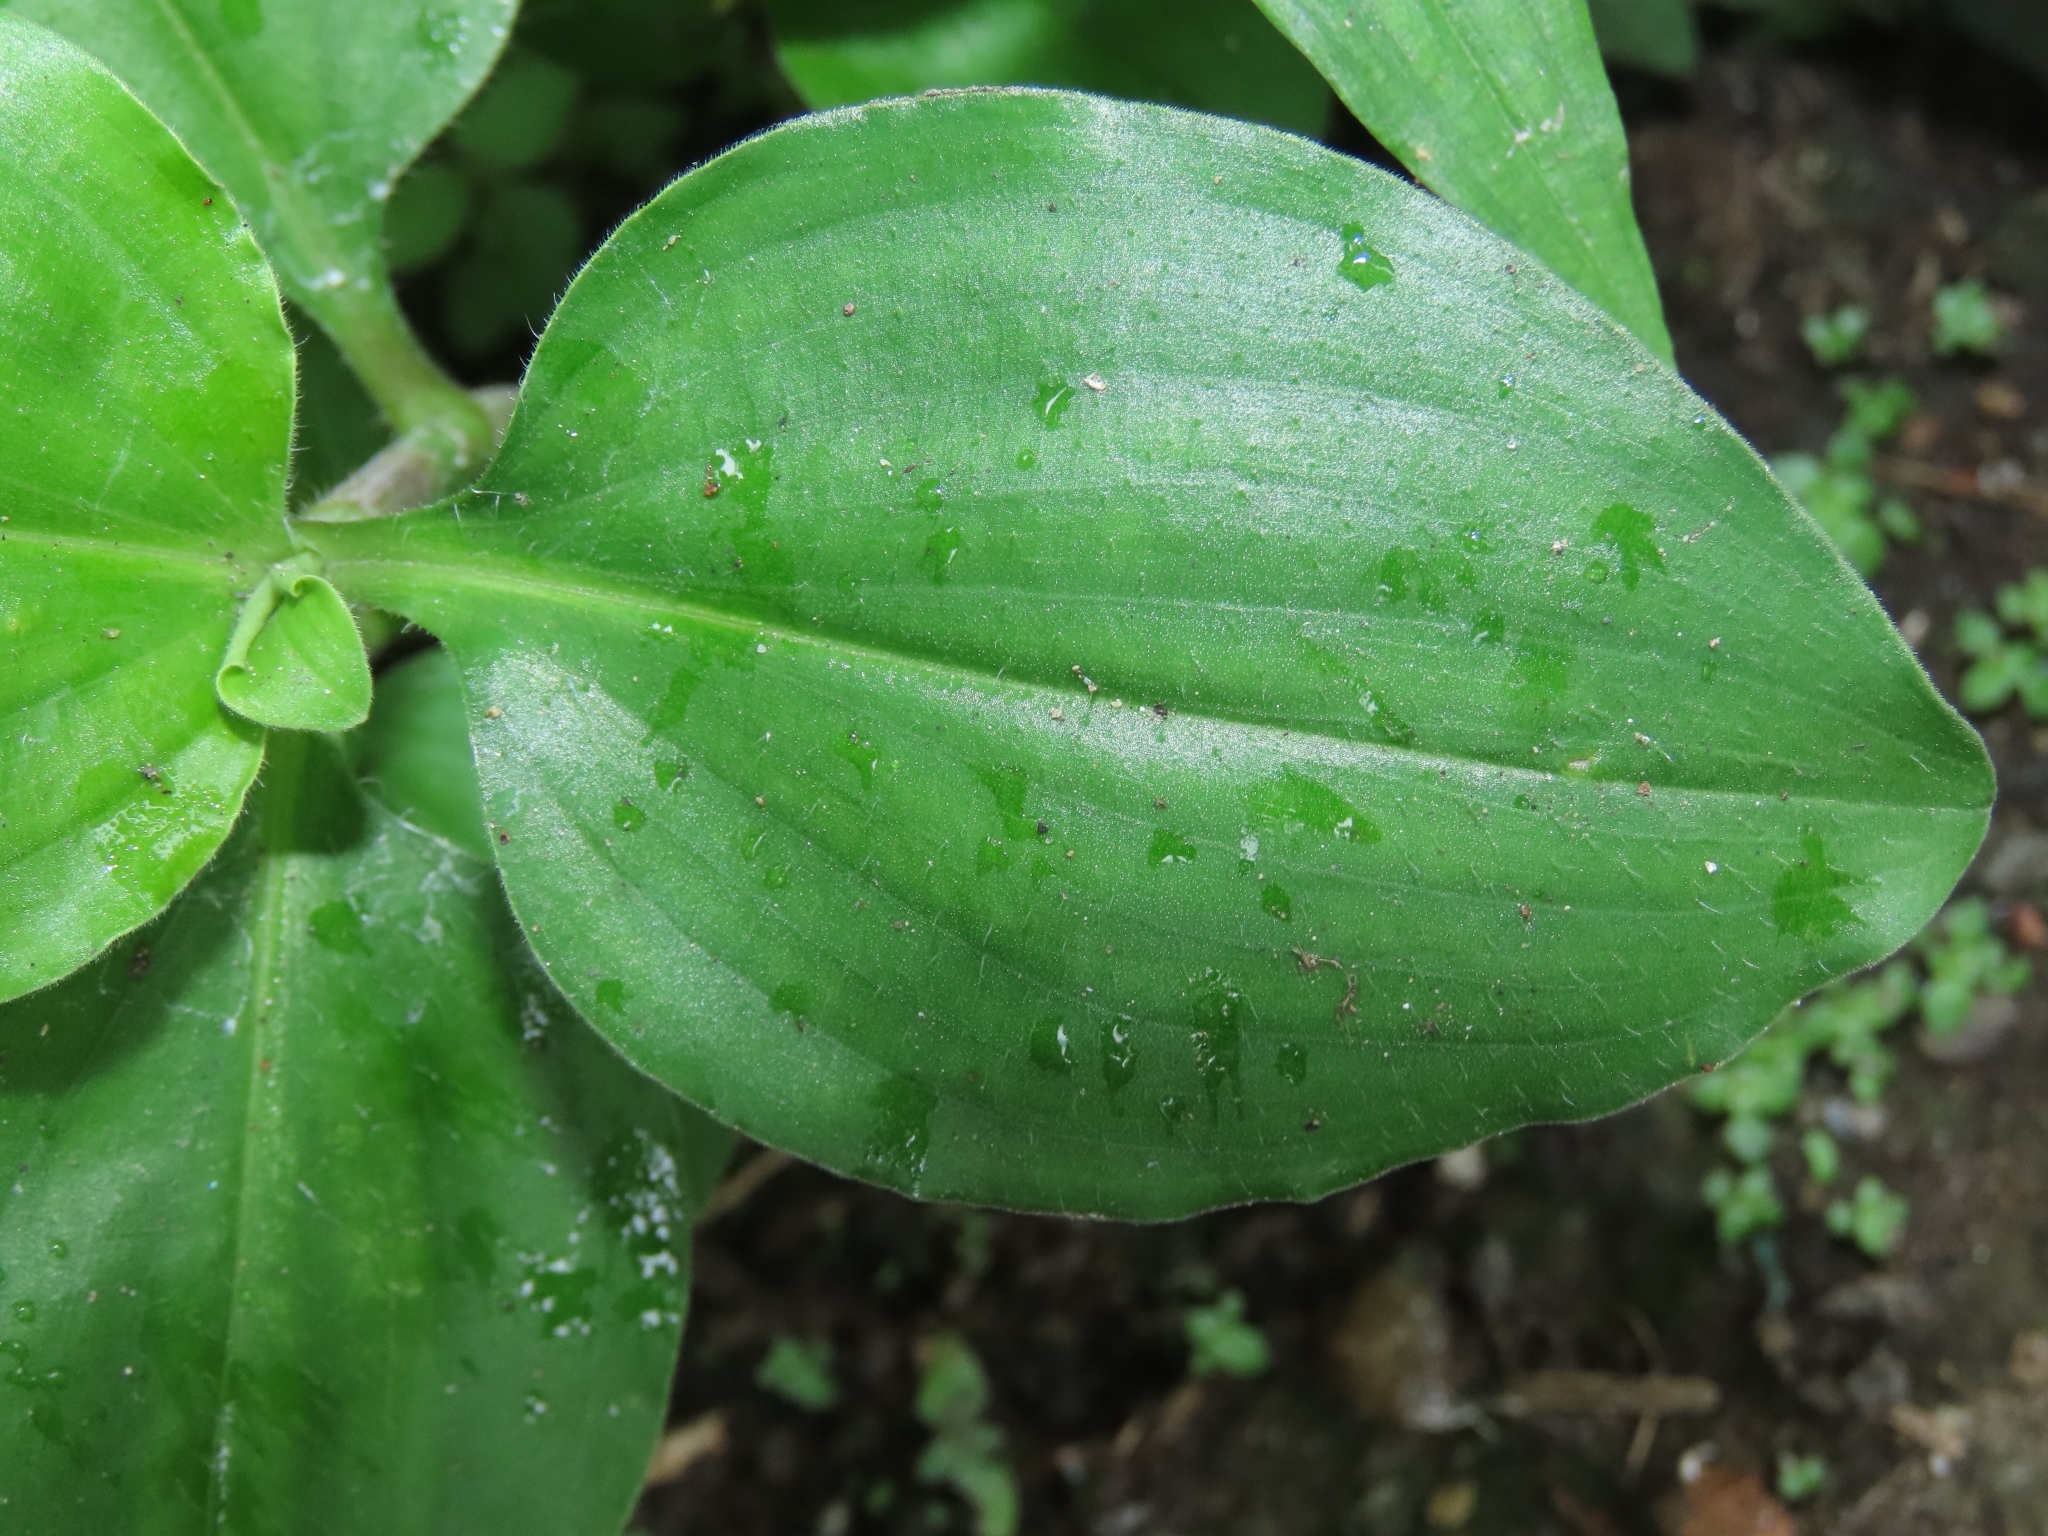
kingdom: Plantae
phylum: Tracheophyta
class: Liliopsida
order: Commelinales
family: Commelinaceae
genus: Commelina
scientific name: Commelina benghalensis
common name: Jio
